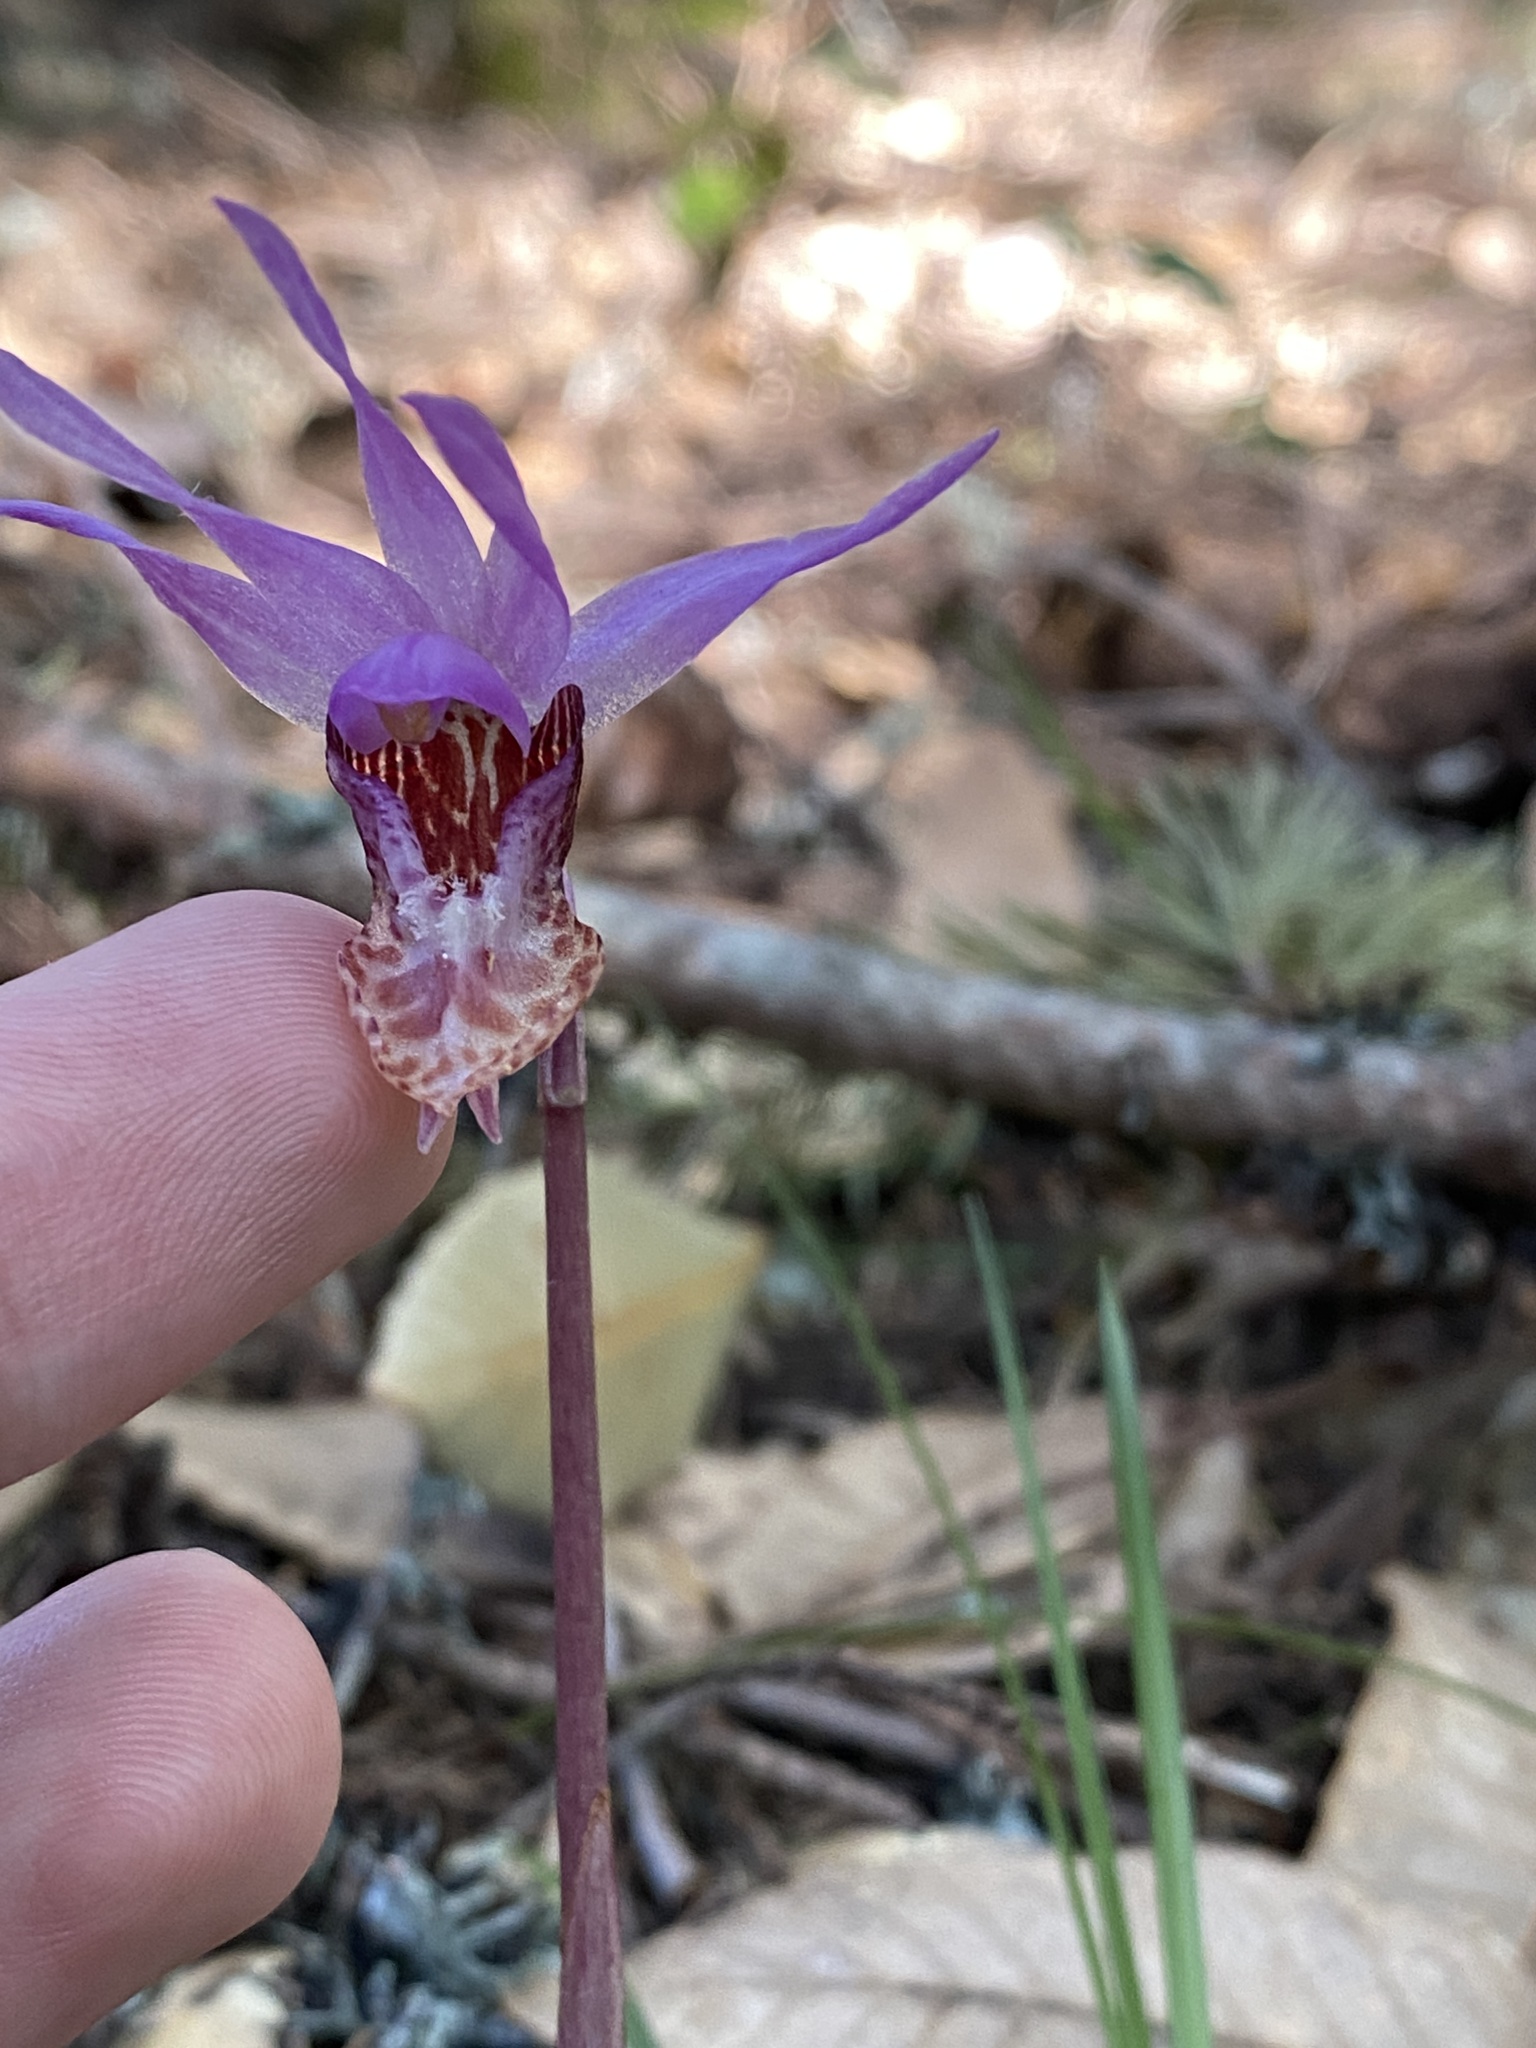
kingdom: Plantae
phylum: Tracheophyta
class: Liliopsida
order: Asparagales
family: Orchidaceae
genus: Calypso
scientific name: Calypso bulbosa
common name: Calypso
